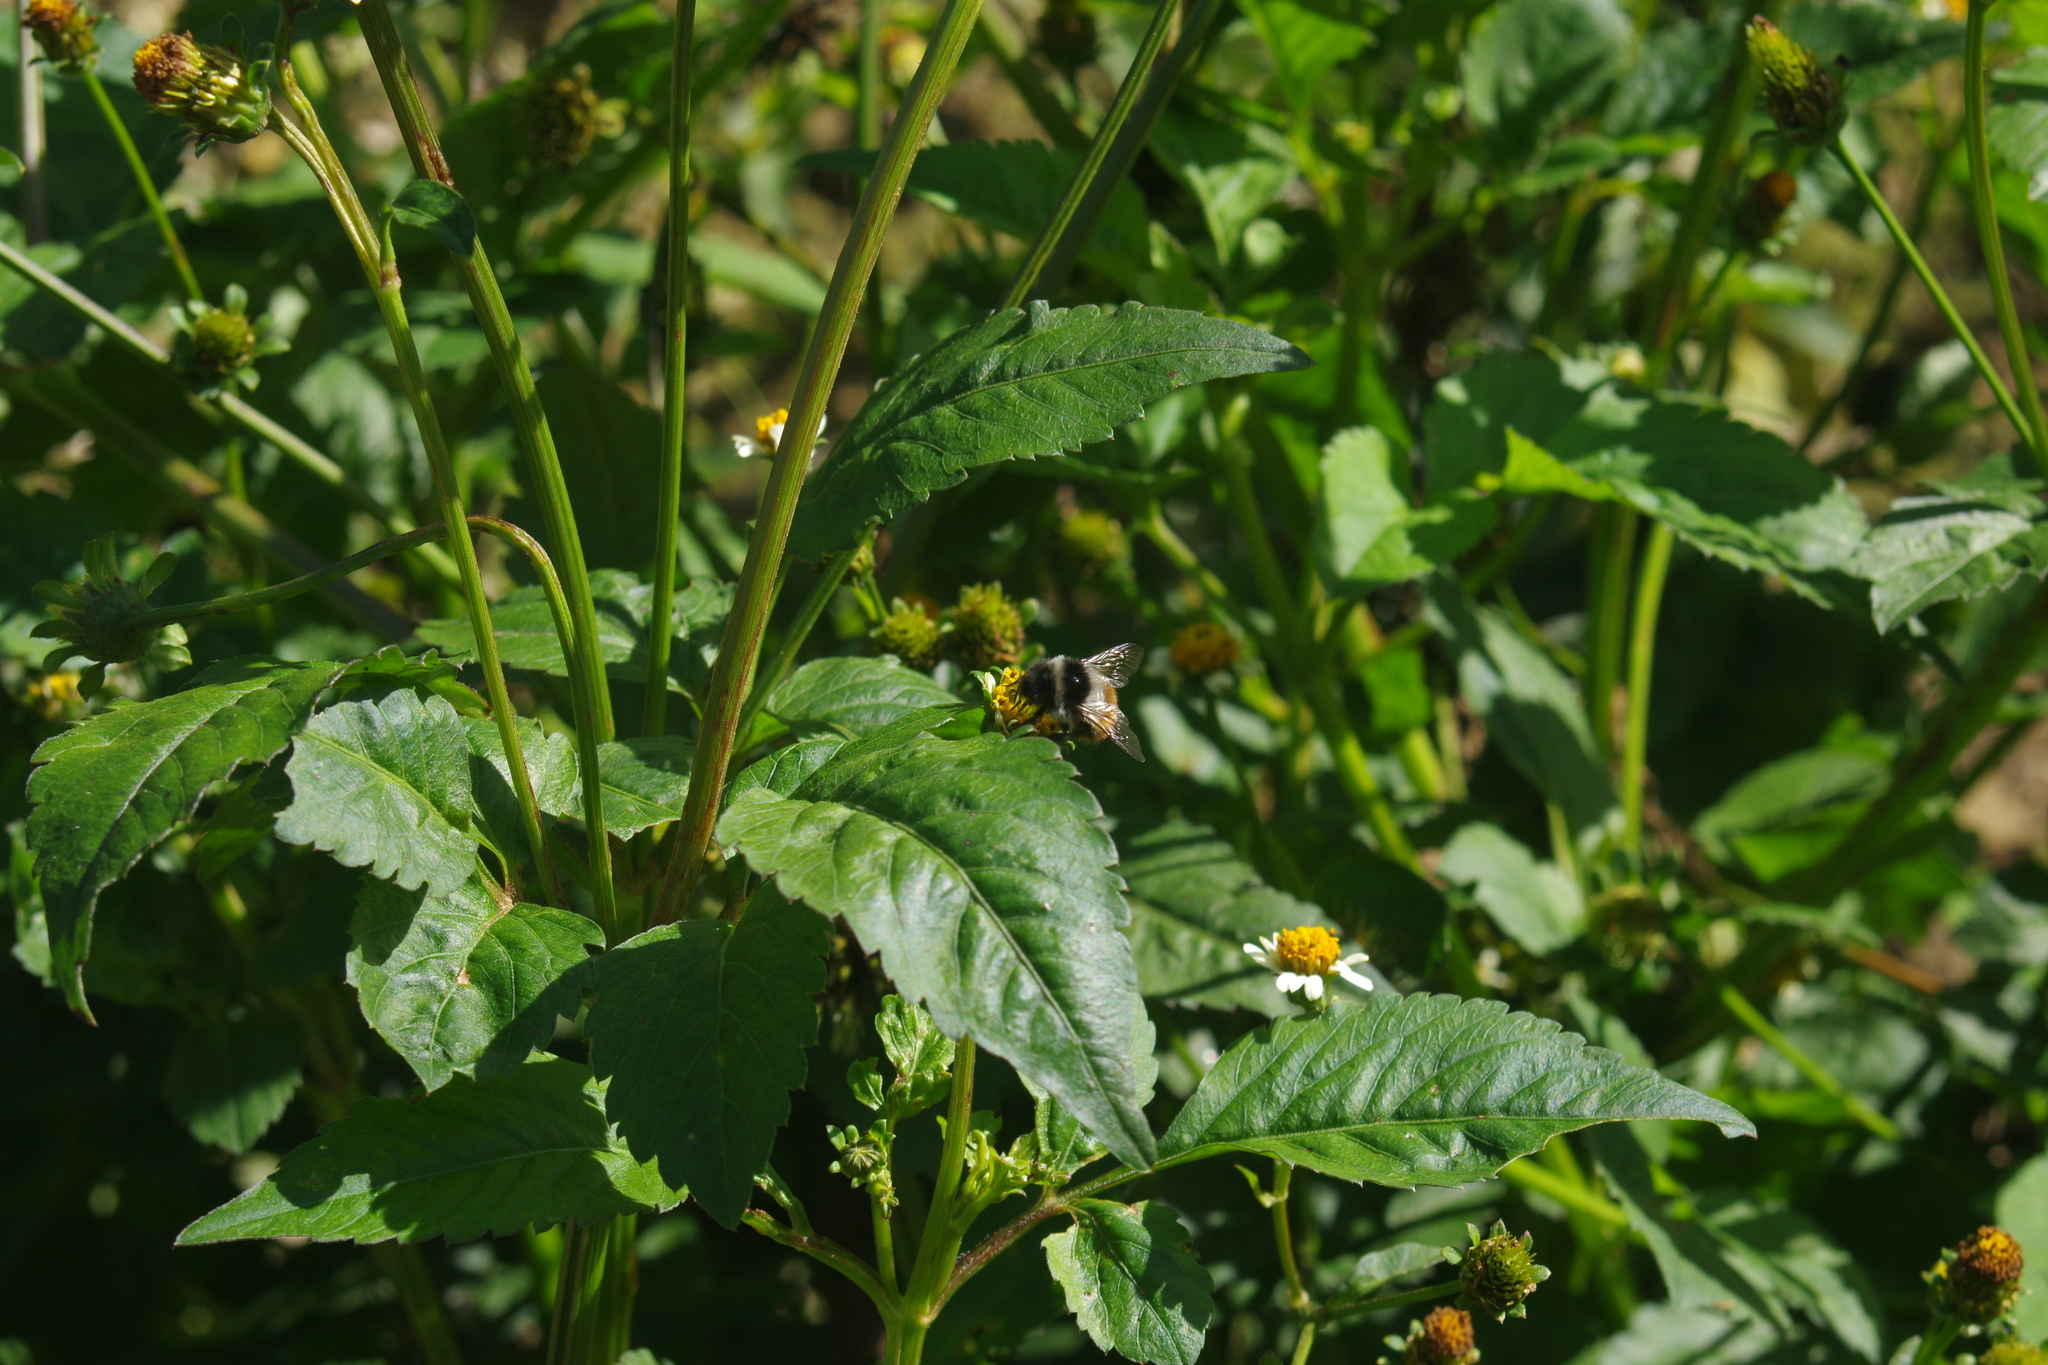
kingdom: Animalia
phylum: Arthropoda
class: Insecta
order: Hymenoptera
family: Apidae
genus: Bombus
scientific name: Bombus formosellus
